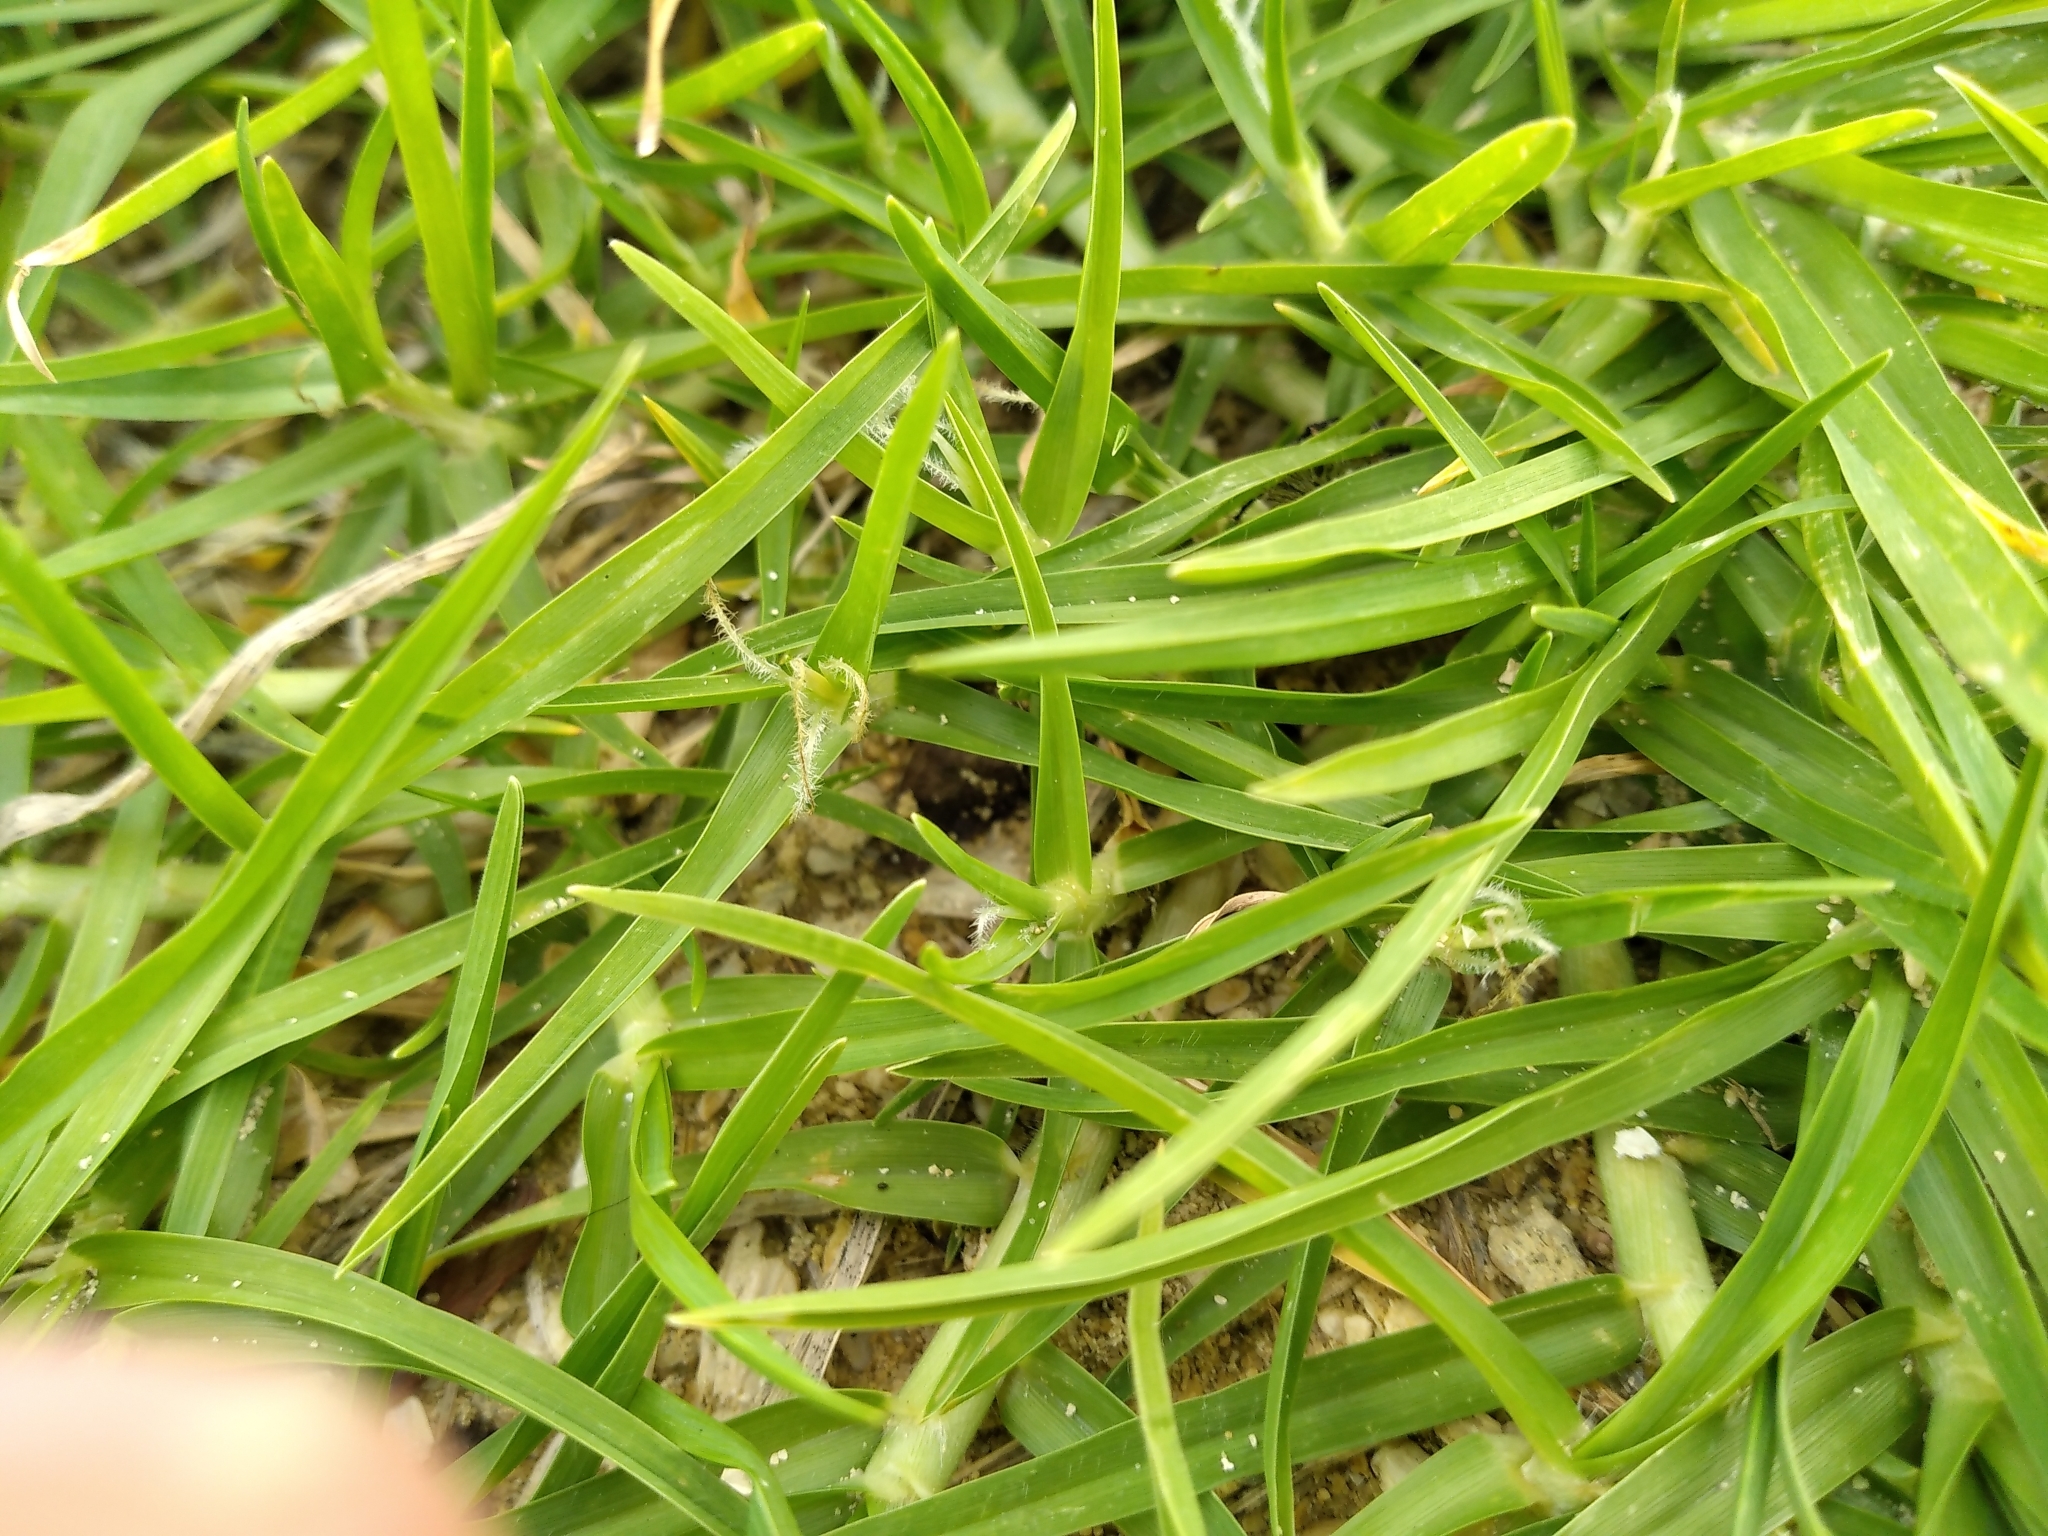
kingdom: Plantae
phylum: Tracheophyta
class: Liliopsida
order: Poales
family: Poaceae
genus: Cenchrus
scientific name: Cenchrus clandestinus
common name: Kikuyugrass
